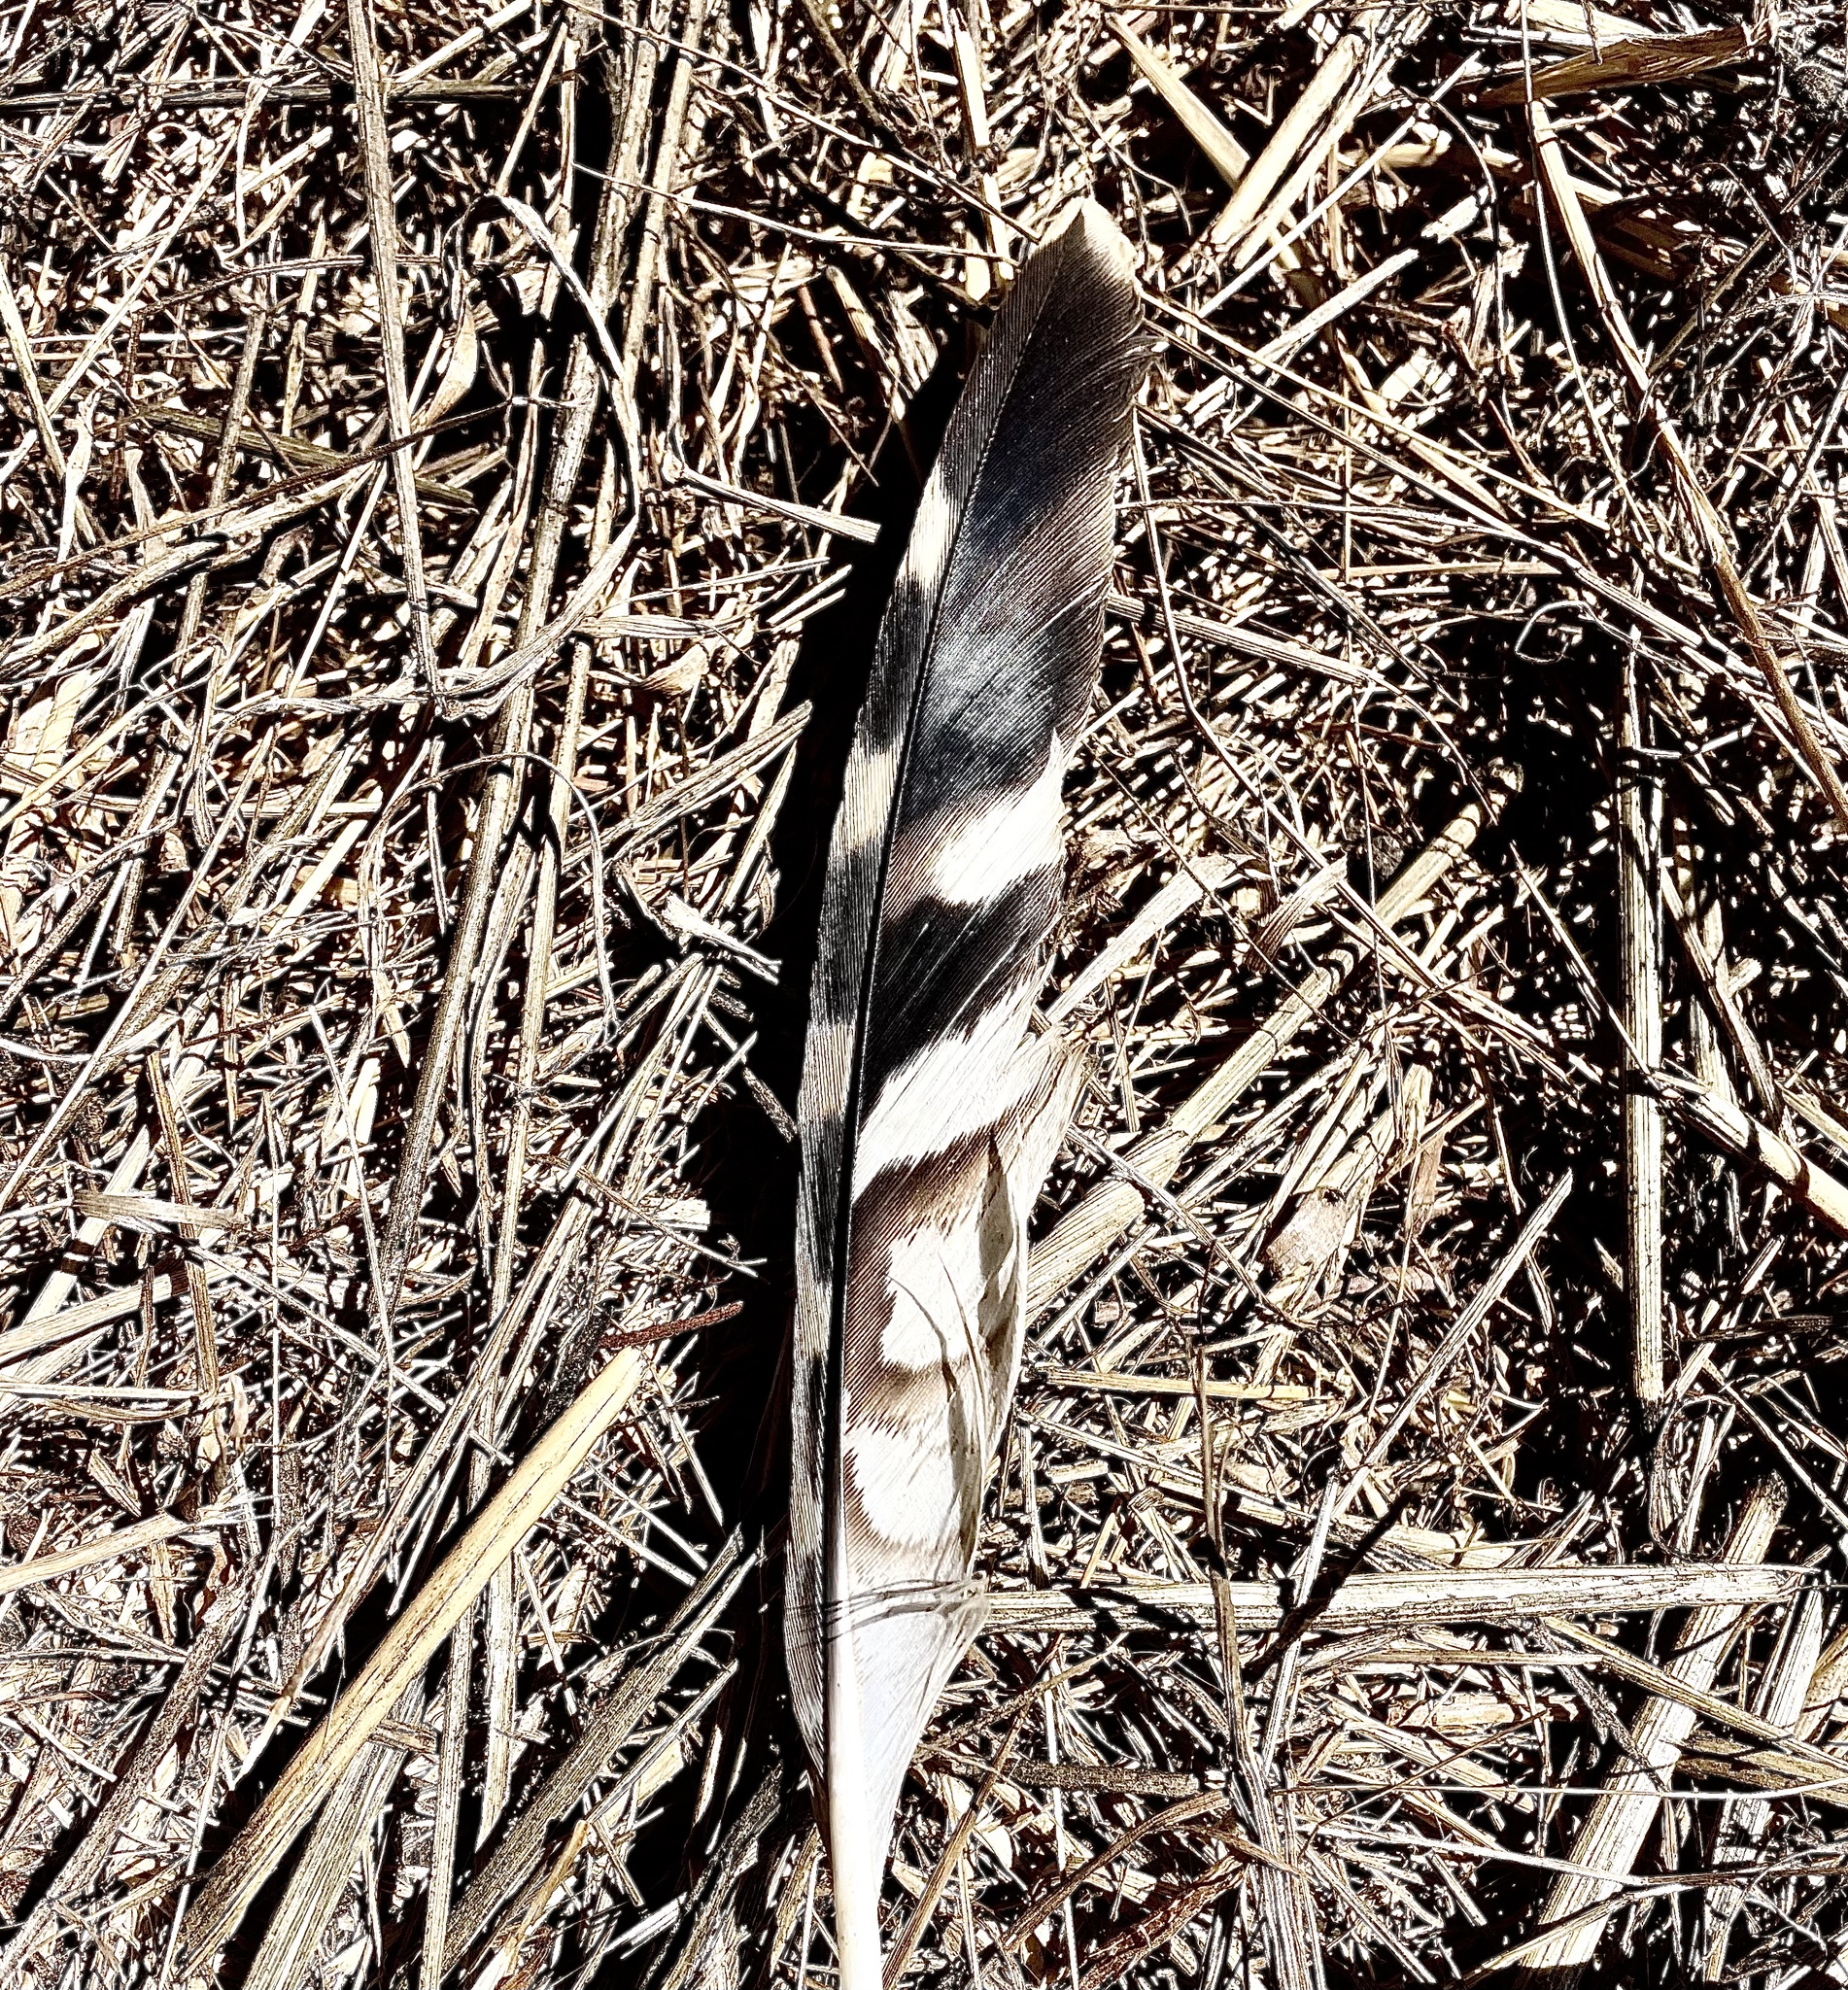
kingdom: Animalia
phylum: Chordata
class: Aves
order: Accipitriformes
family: Accipitridae
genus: Buteo
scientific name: Buteo lineatus
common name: Red-shouldered hawk
